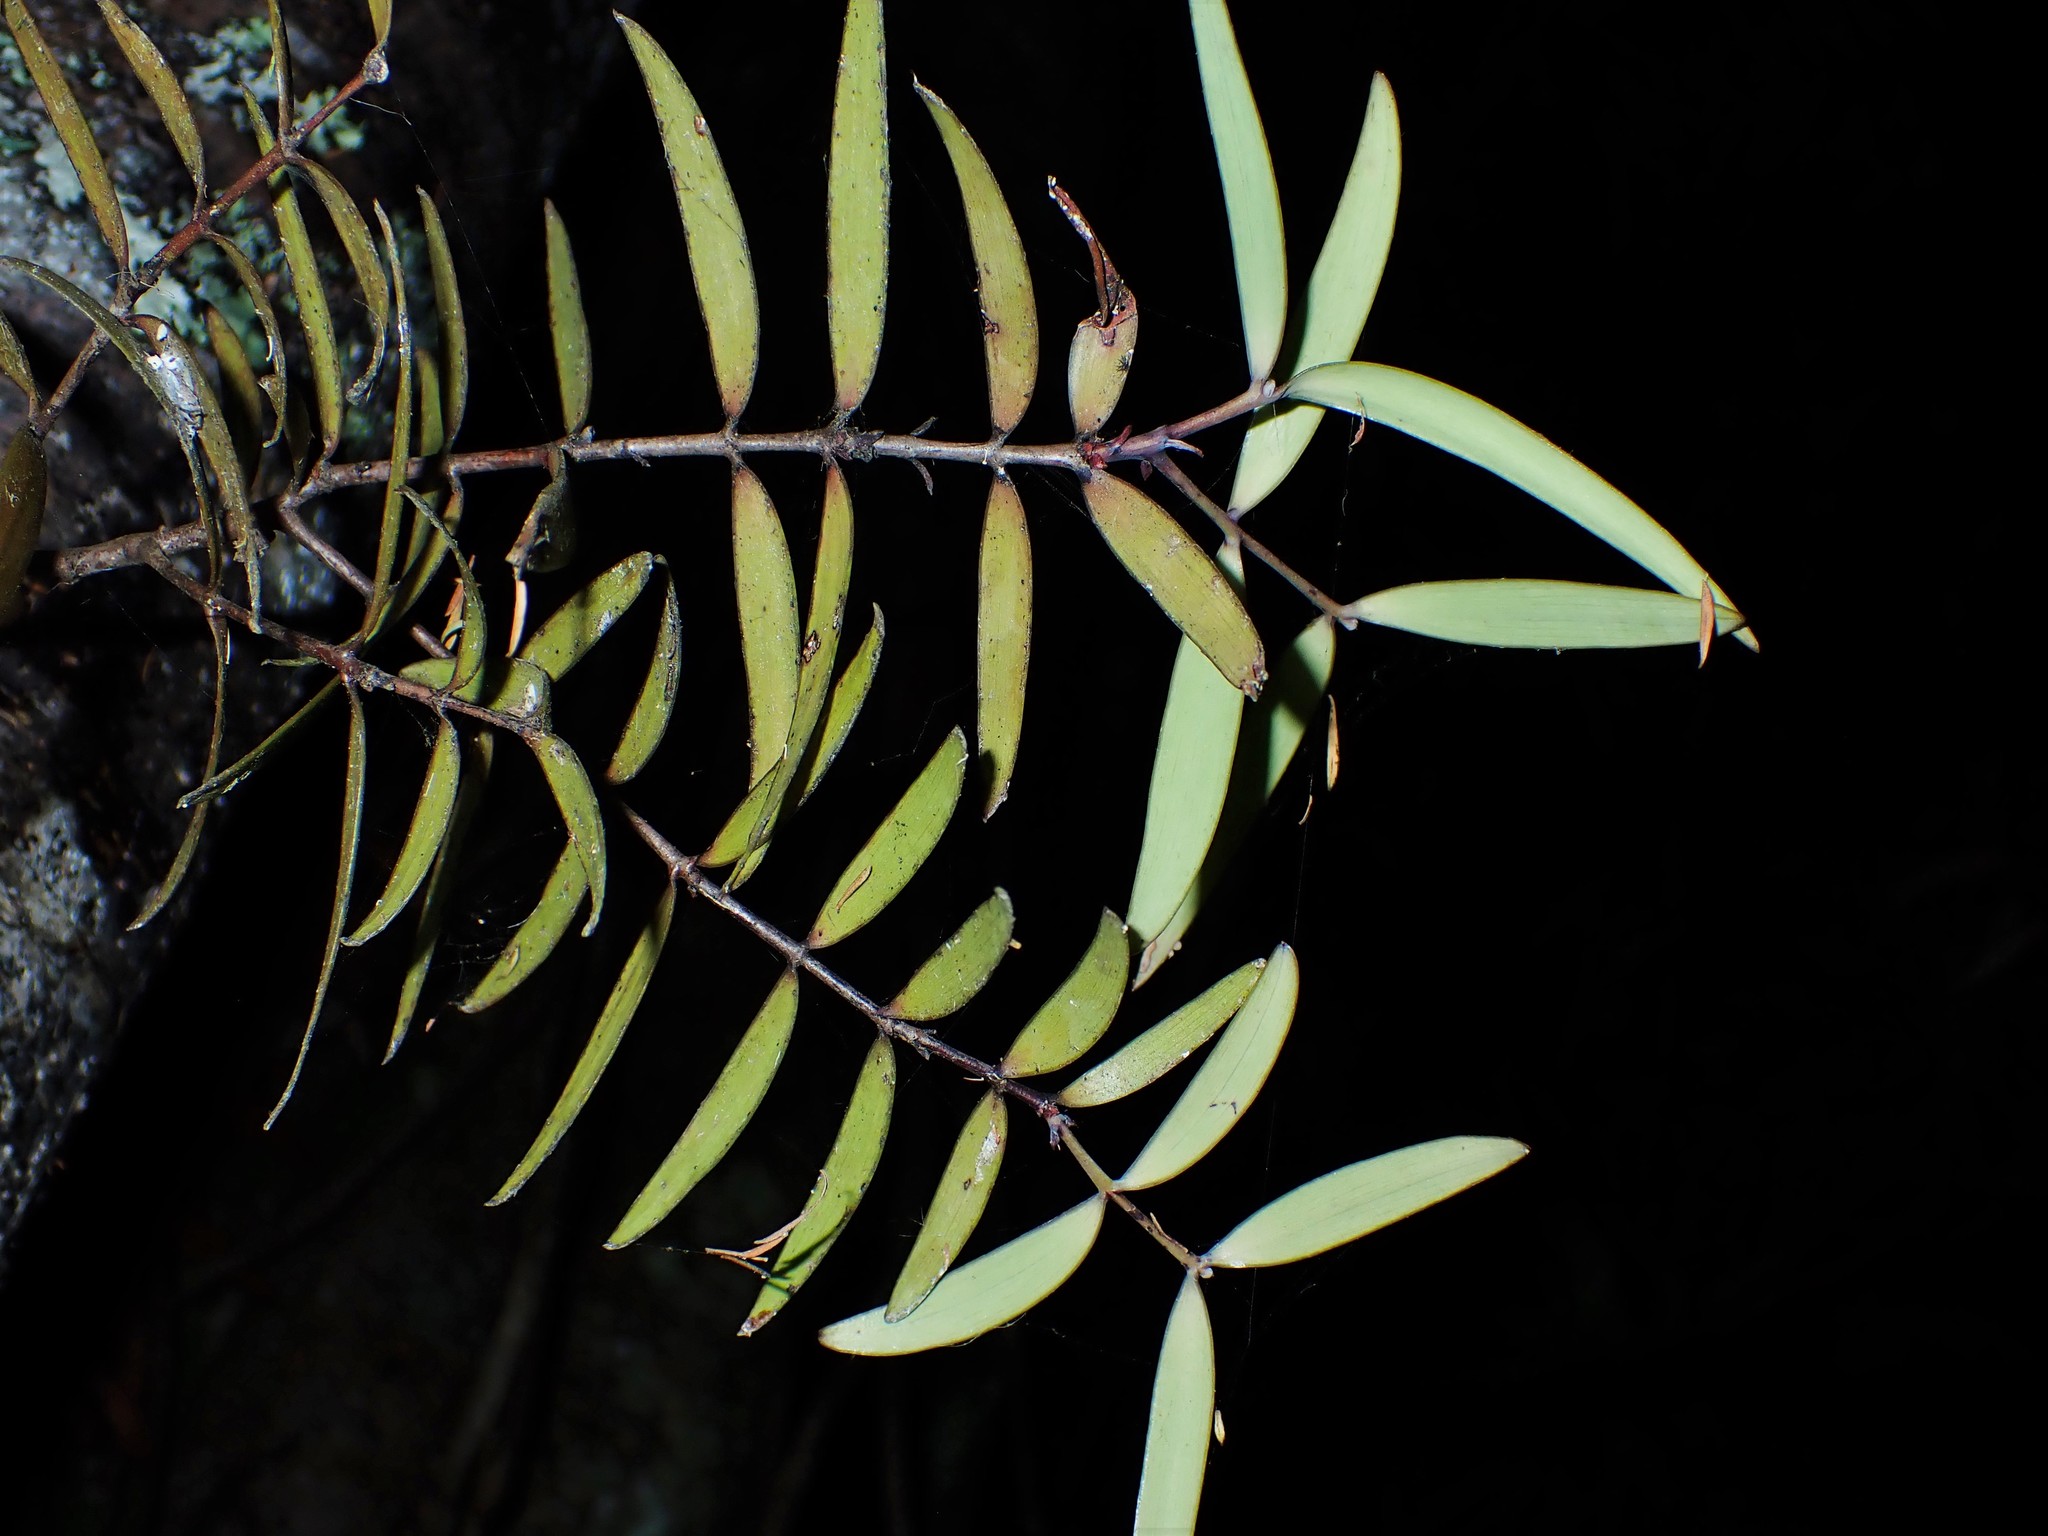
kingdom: Plantae
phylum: Tracheophyta
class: Pinopsida
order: Pinales
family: Araucariaceae
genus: Agathis
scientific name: Agathis australis
